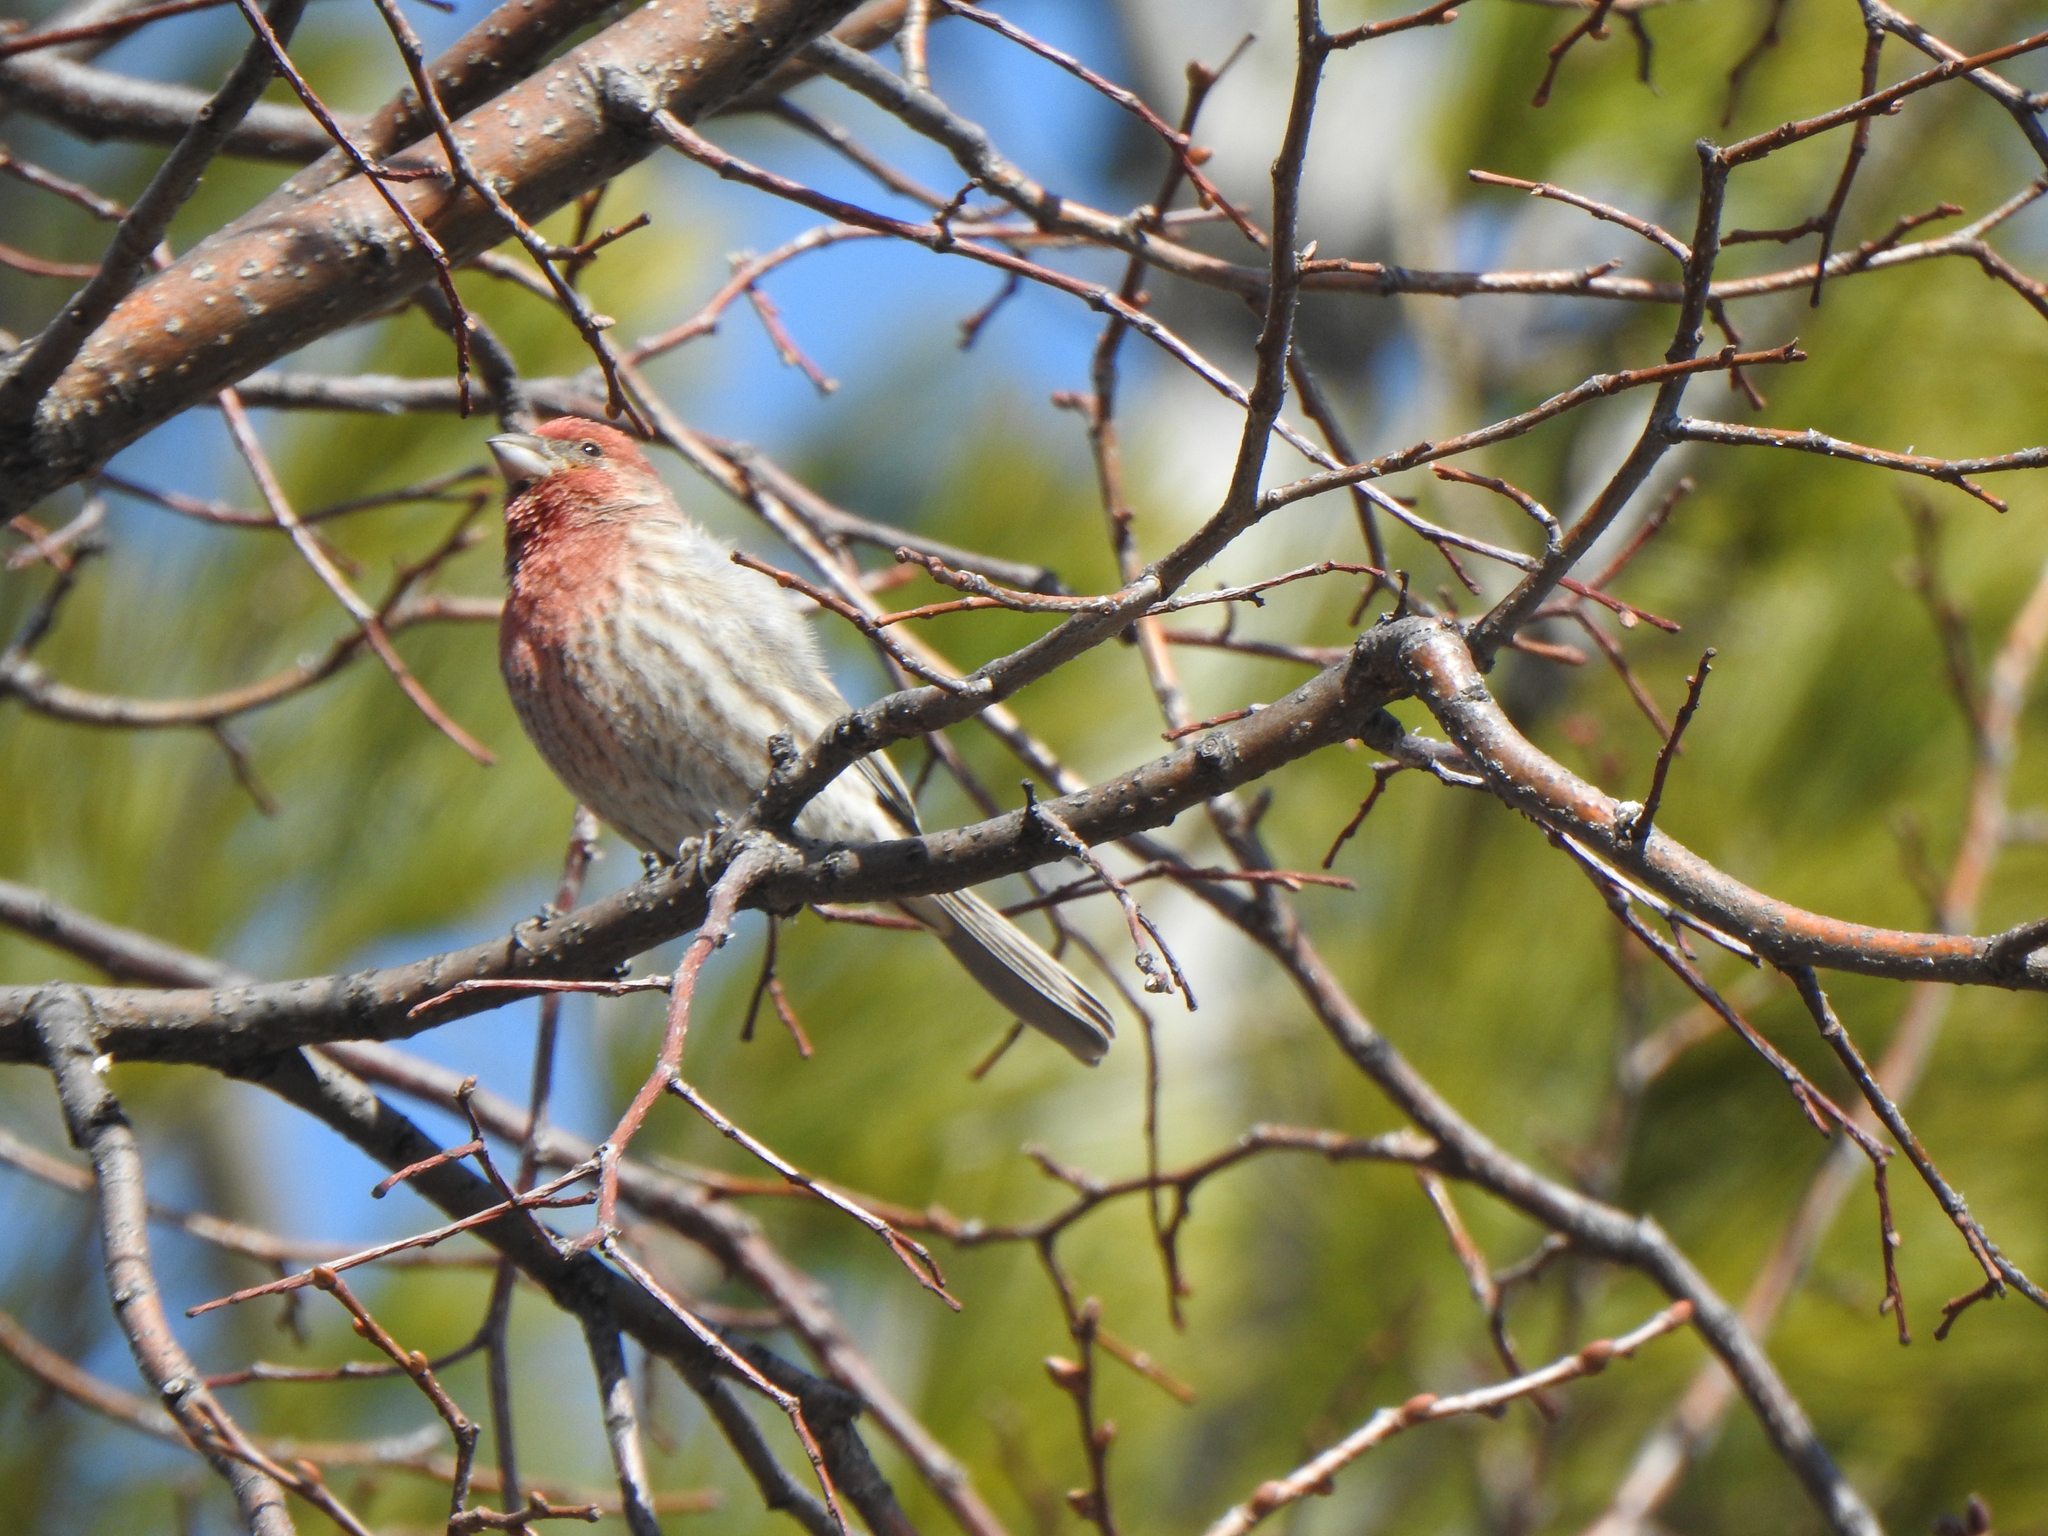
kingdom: Animalia
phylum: Chordata
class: Aves
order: Passeriformes
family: Fringillidae
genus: Haemorhous
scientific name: Haemorhous mexicanus
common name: House finch
